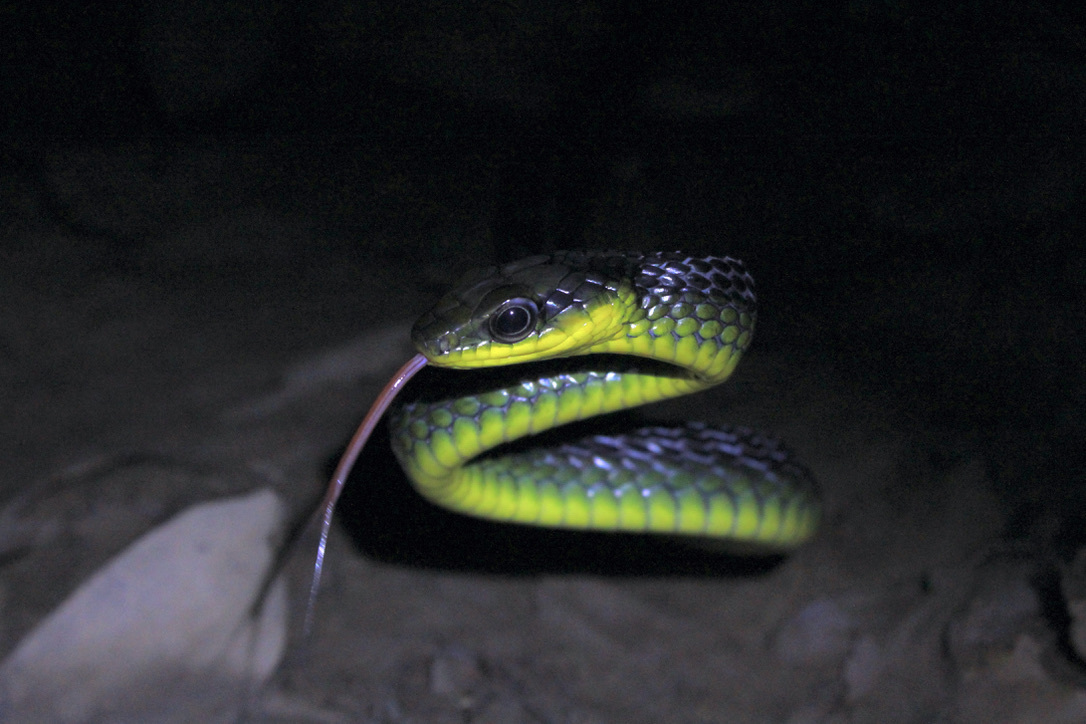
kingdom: Animalia
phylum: Chordata
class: Squamata
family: Colubridae
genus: Chironius
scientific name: Chironius septentrionalis
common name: South american sipo
